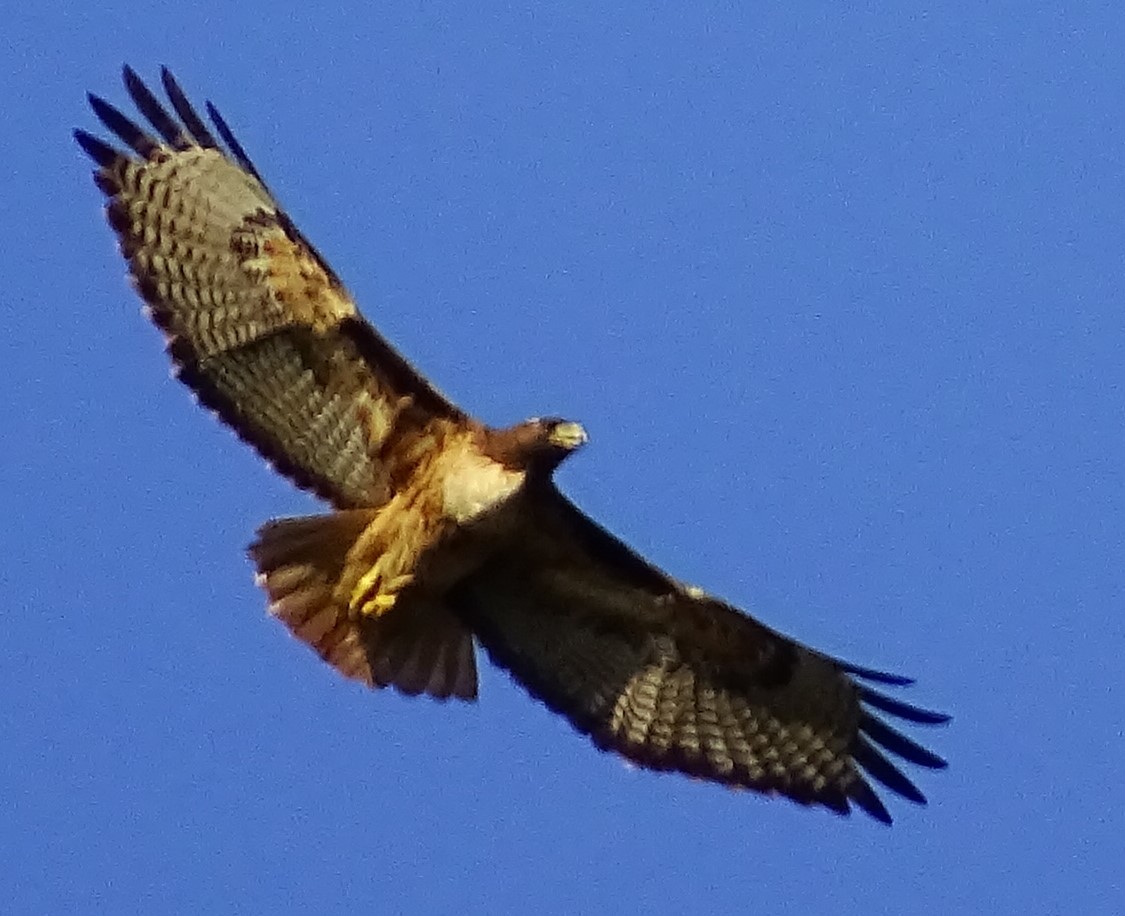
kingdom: Animalia
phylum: Chordata
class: Aves
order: Accipitriformes
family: Accipitridae
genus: Buteo
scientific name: Buteo jamaicensis
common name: Red-tailed hawk
